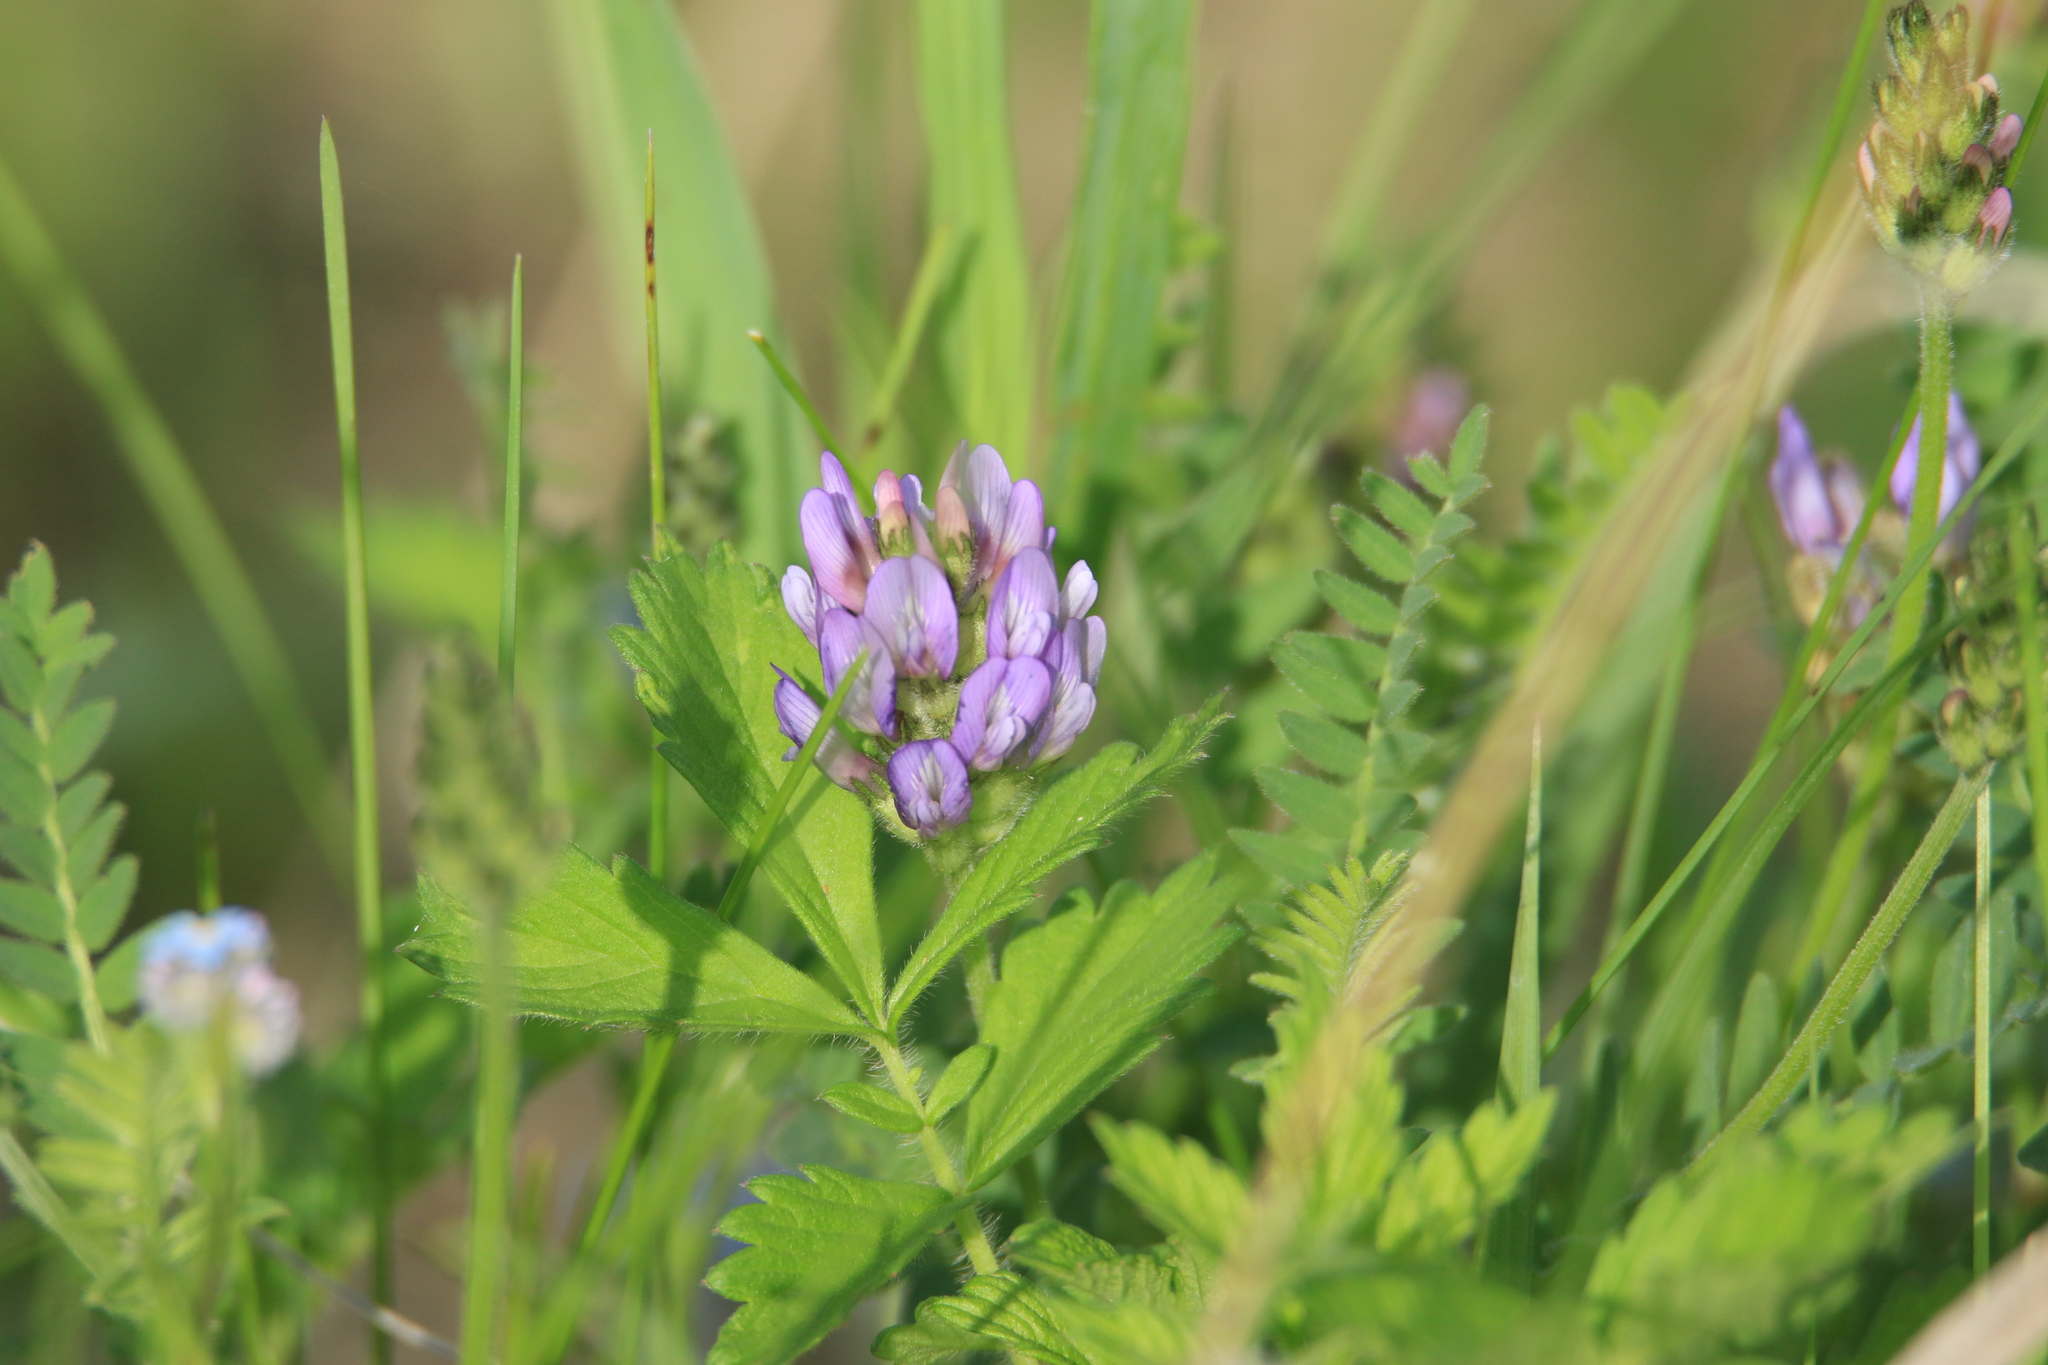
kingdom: Plantae
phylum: Tracheophyta
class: Magnoliopsida
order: Fabales
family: Fabaceae
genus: Astragalus
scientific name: Astragalus danicus
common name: Purple milk-vetch
